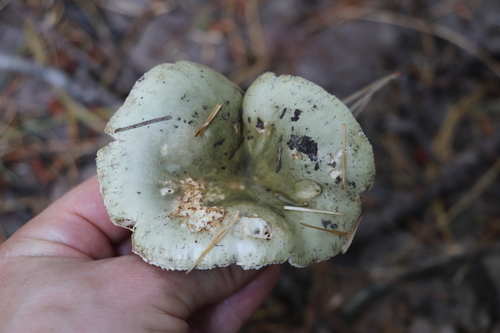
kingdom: Fungi
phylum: Basidiomycota
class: Agaricomycetes
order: Russulales
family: Russulaceae
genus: Russula
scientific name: Russula vesca
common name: Bare-toothed russula
